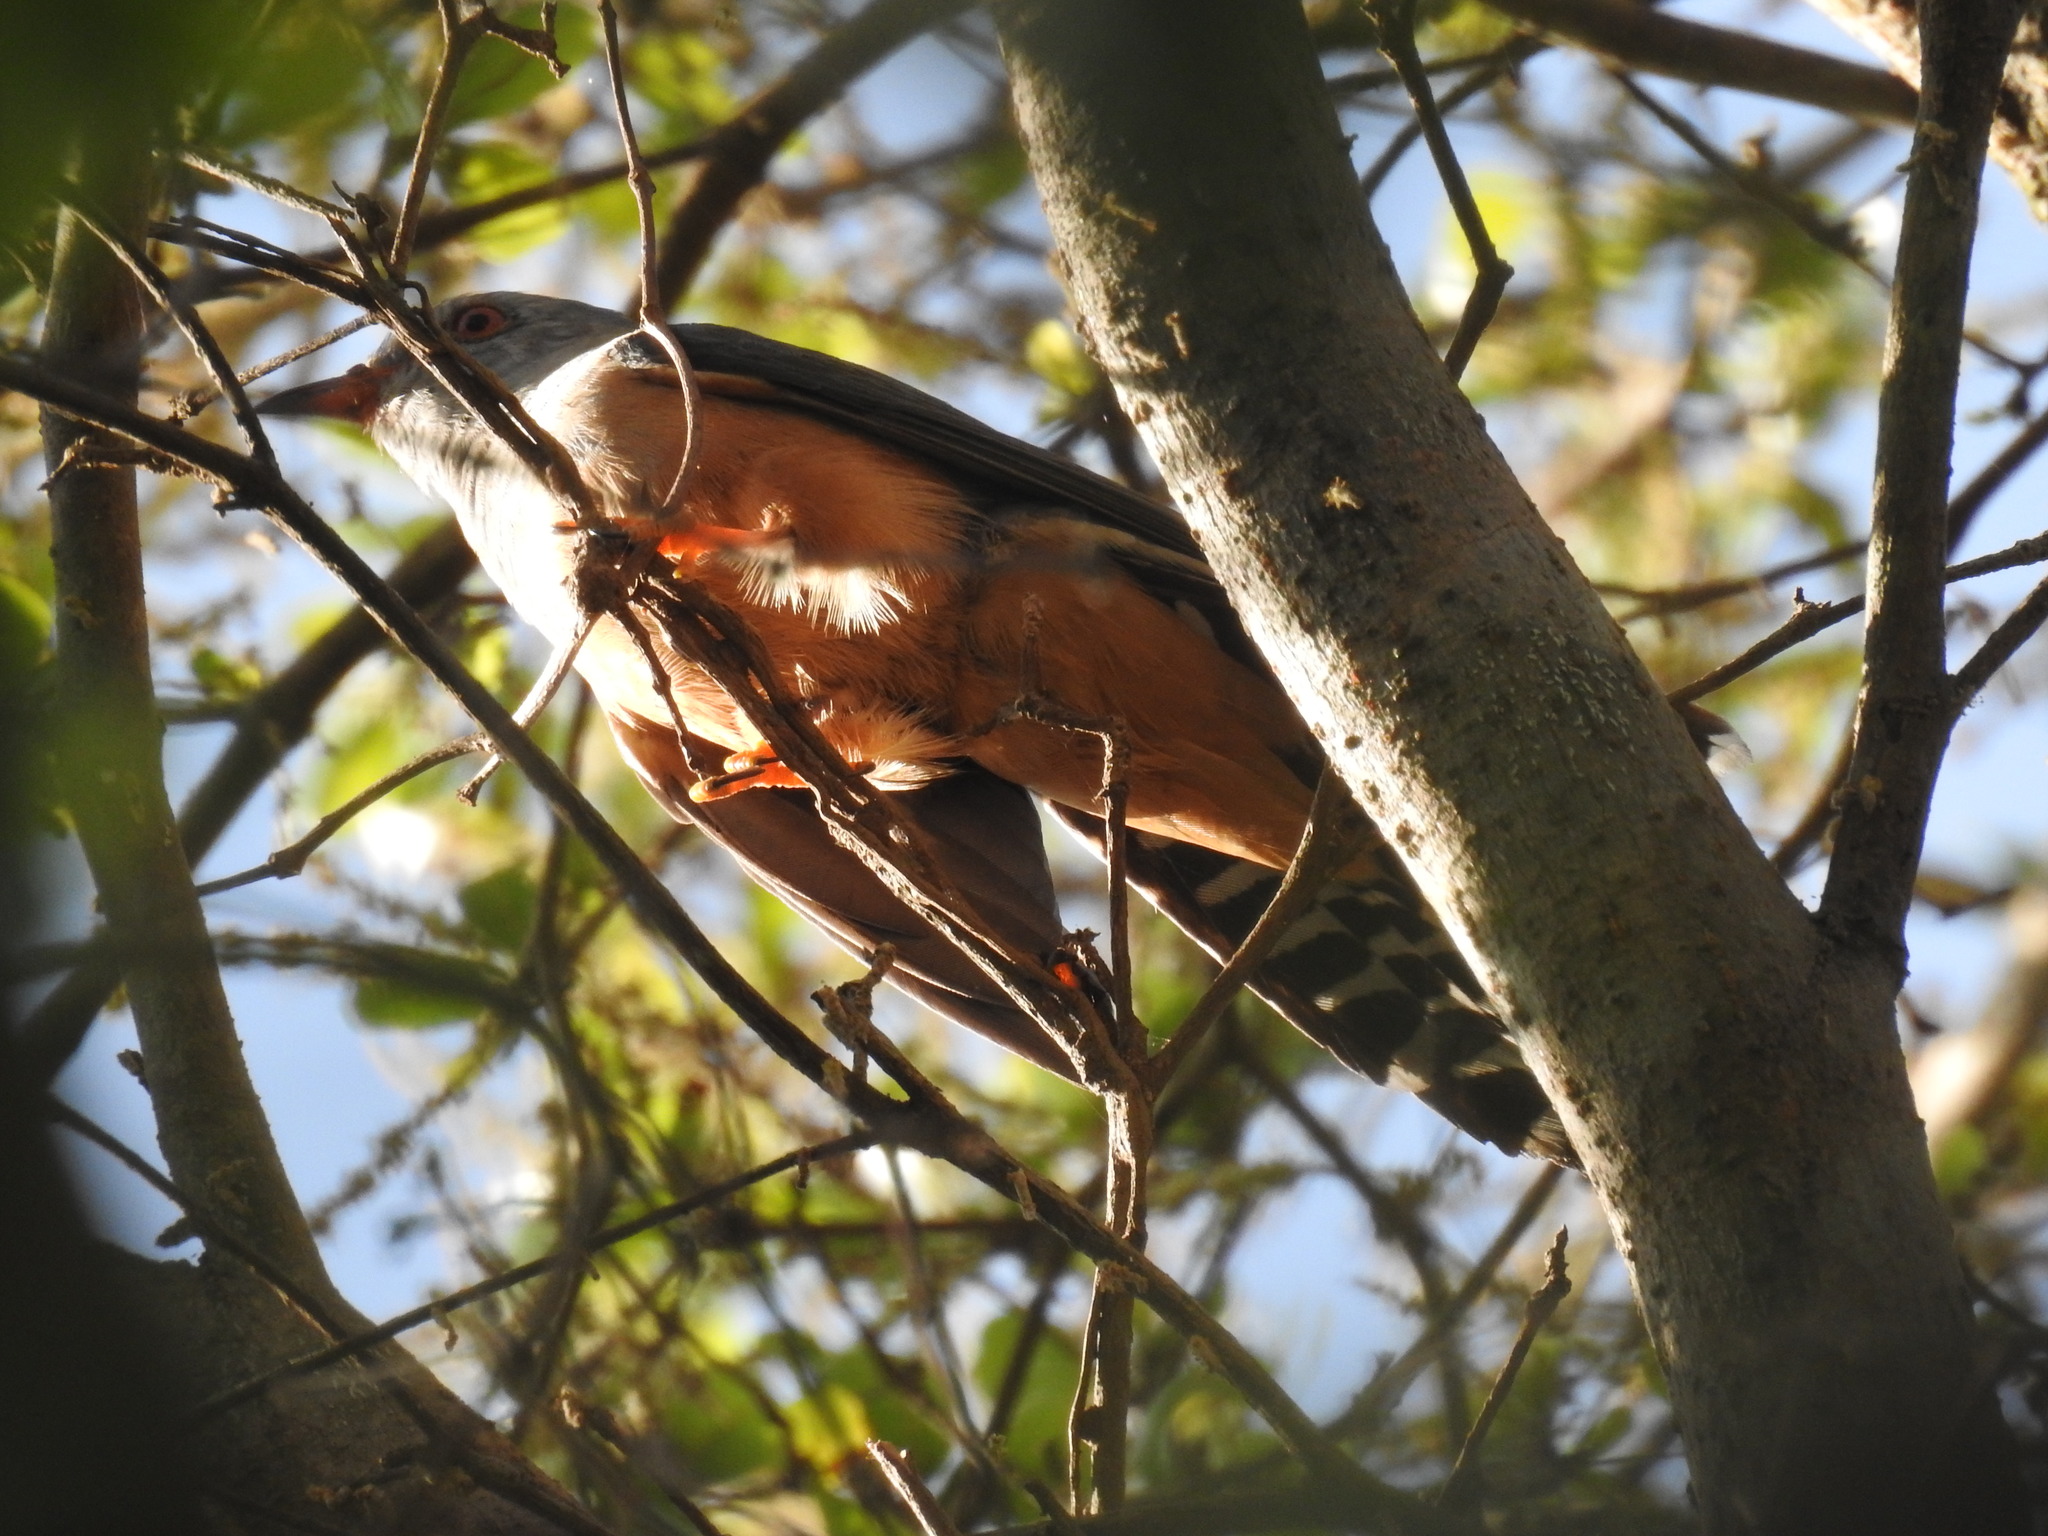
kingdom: Animalia
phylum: Chordata
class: Aves
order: Cuculiformes
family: Cuculidae
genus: Cacomantis
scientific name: Cacomantis merulinus
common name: Plaintive cuckoo
